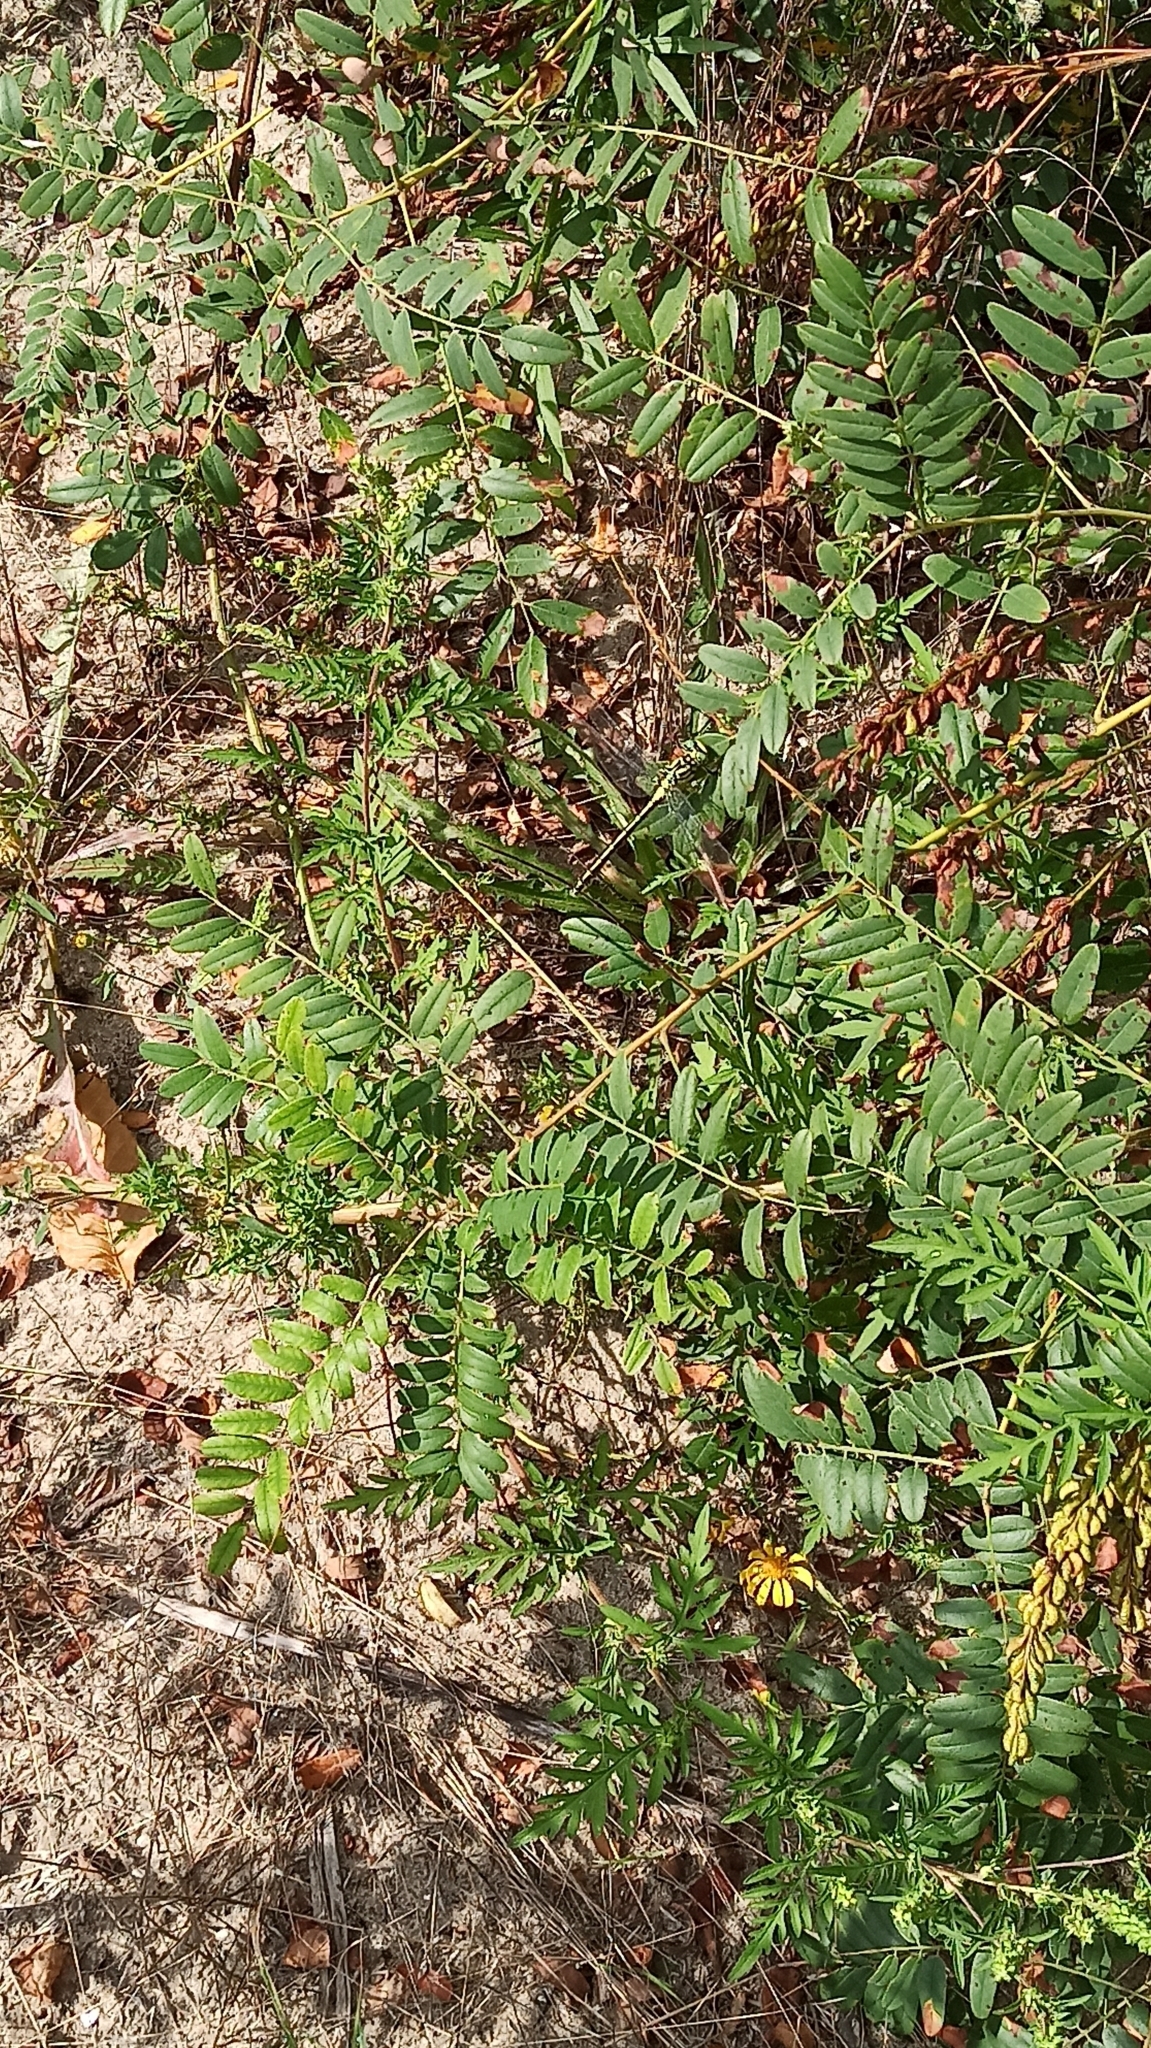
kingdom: Animalia
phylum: Arthropoda
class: Insecta
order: Odonata
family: Gomphidae
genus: Stylurus
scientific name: Stylurus flavipes
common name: River clubtail
